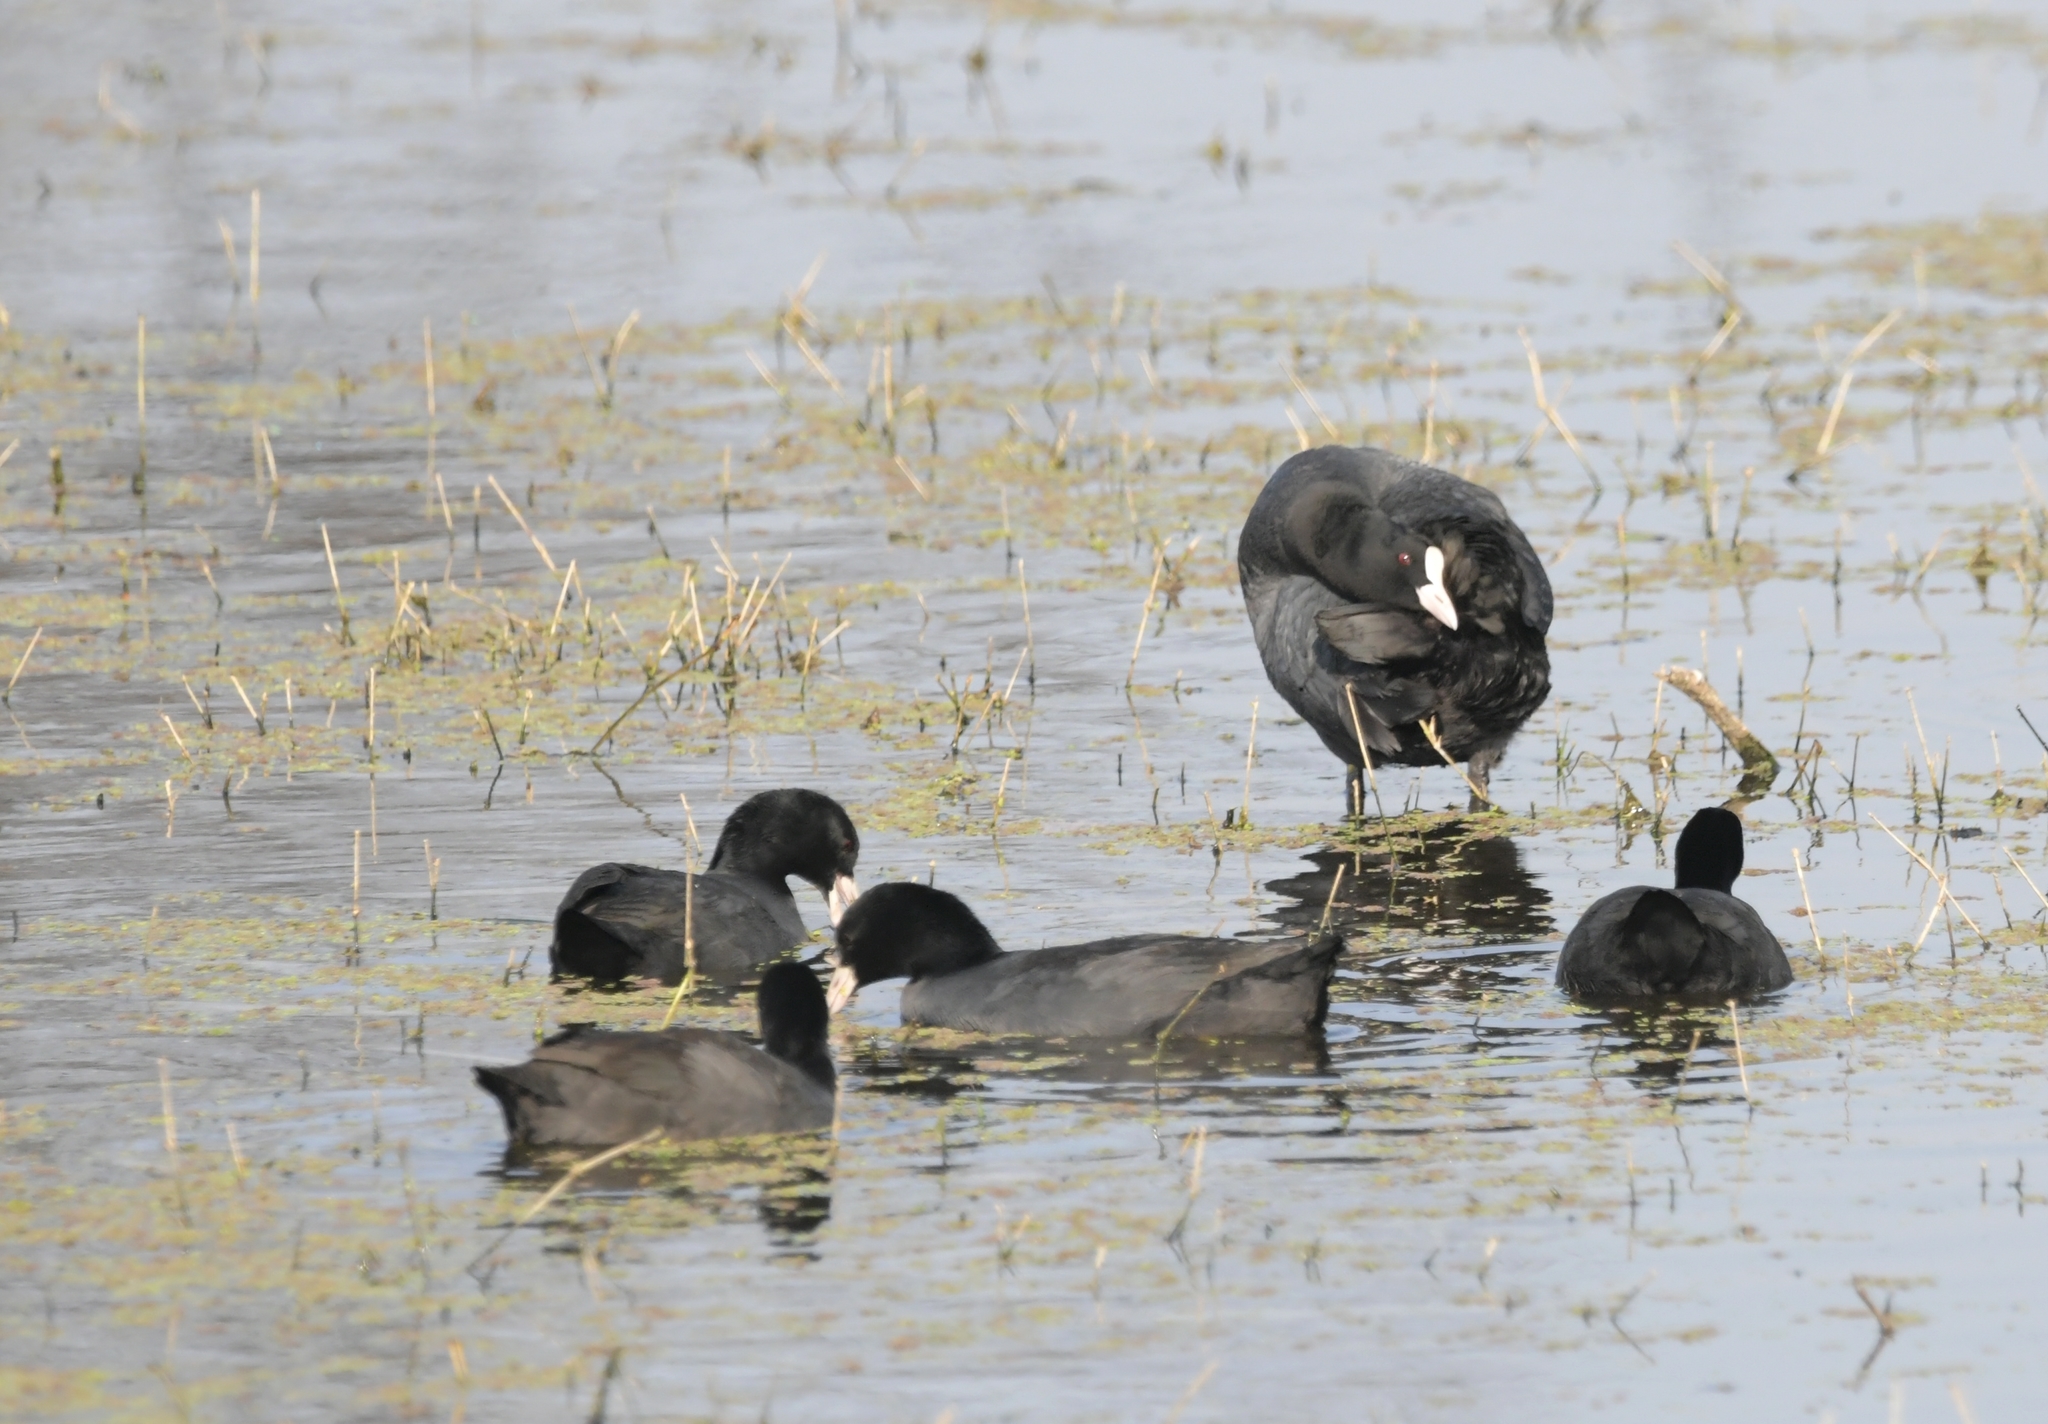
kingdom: Animalia
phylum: Chordata
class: Aves
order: Gruiformes
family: Rallidae
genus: Fulica
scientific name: Fulica atra
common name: Eurasian coot
